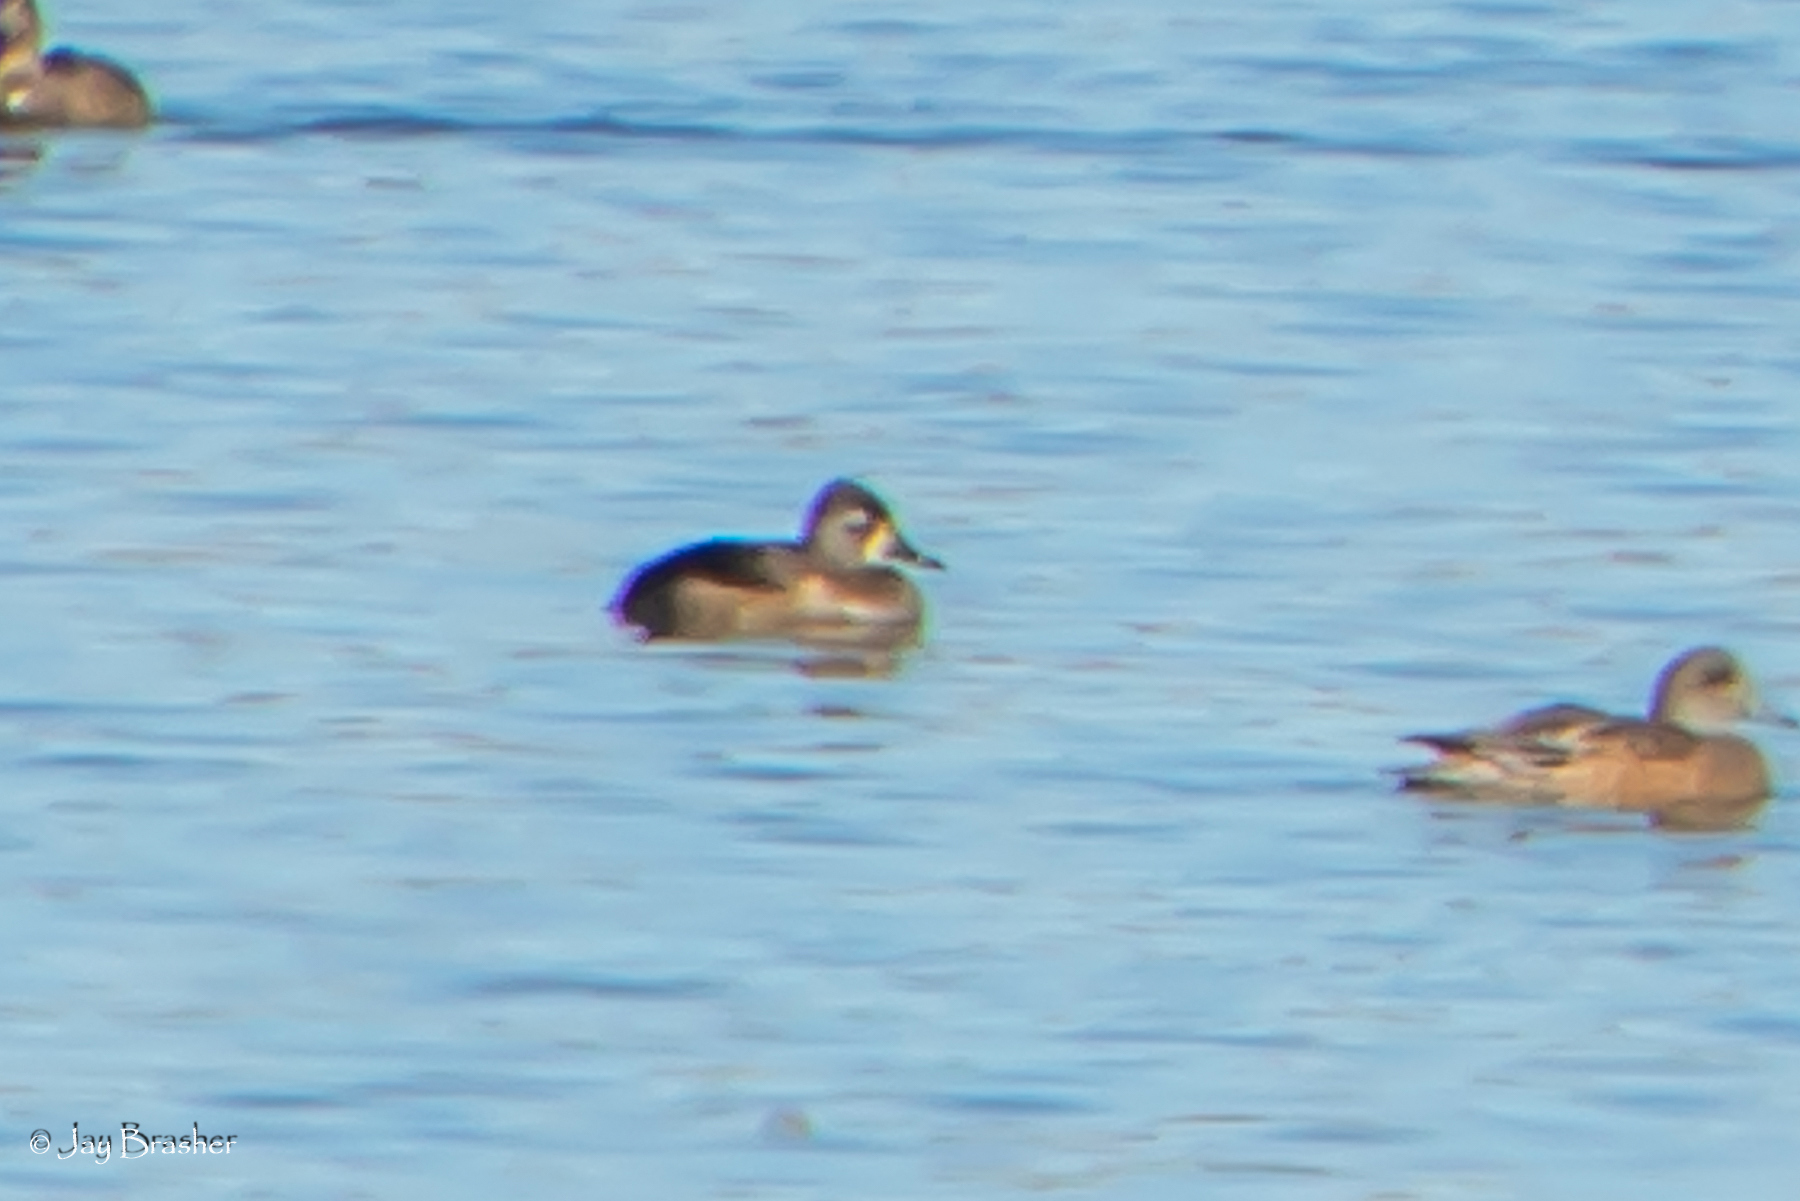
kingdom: Animalia
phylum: Chordata
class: Aves
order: Anseriformes
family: Anatidae
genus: Aythya
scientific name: Aythya collaris
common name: Ring-necked duck
